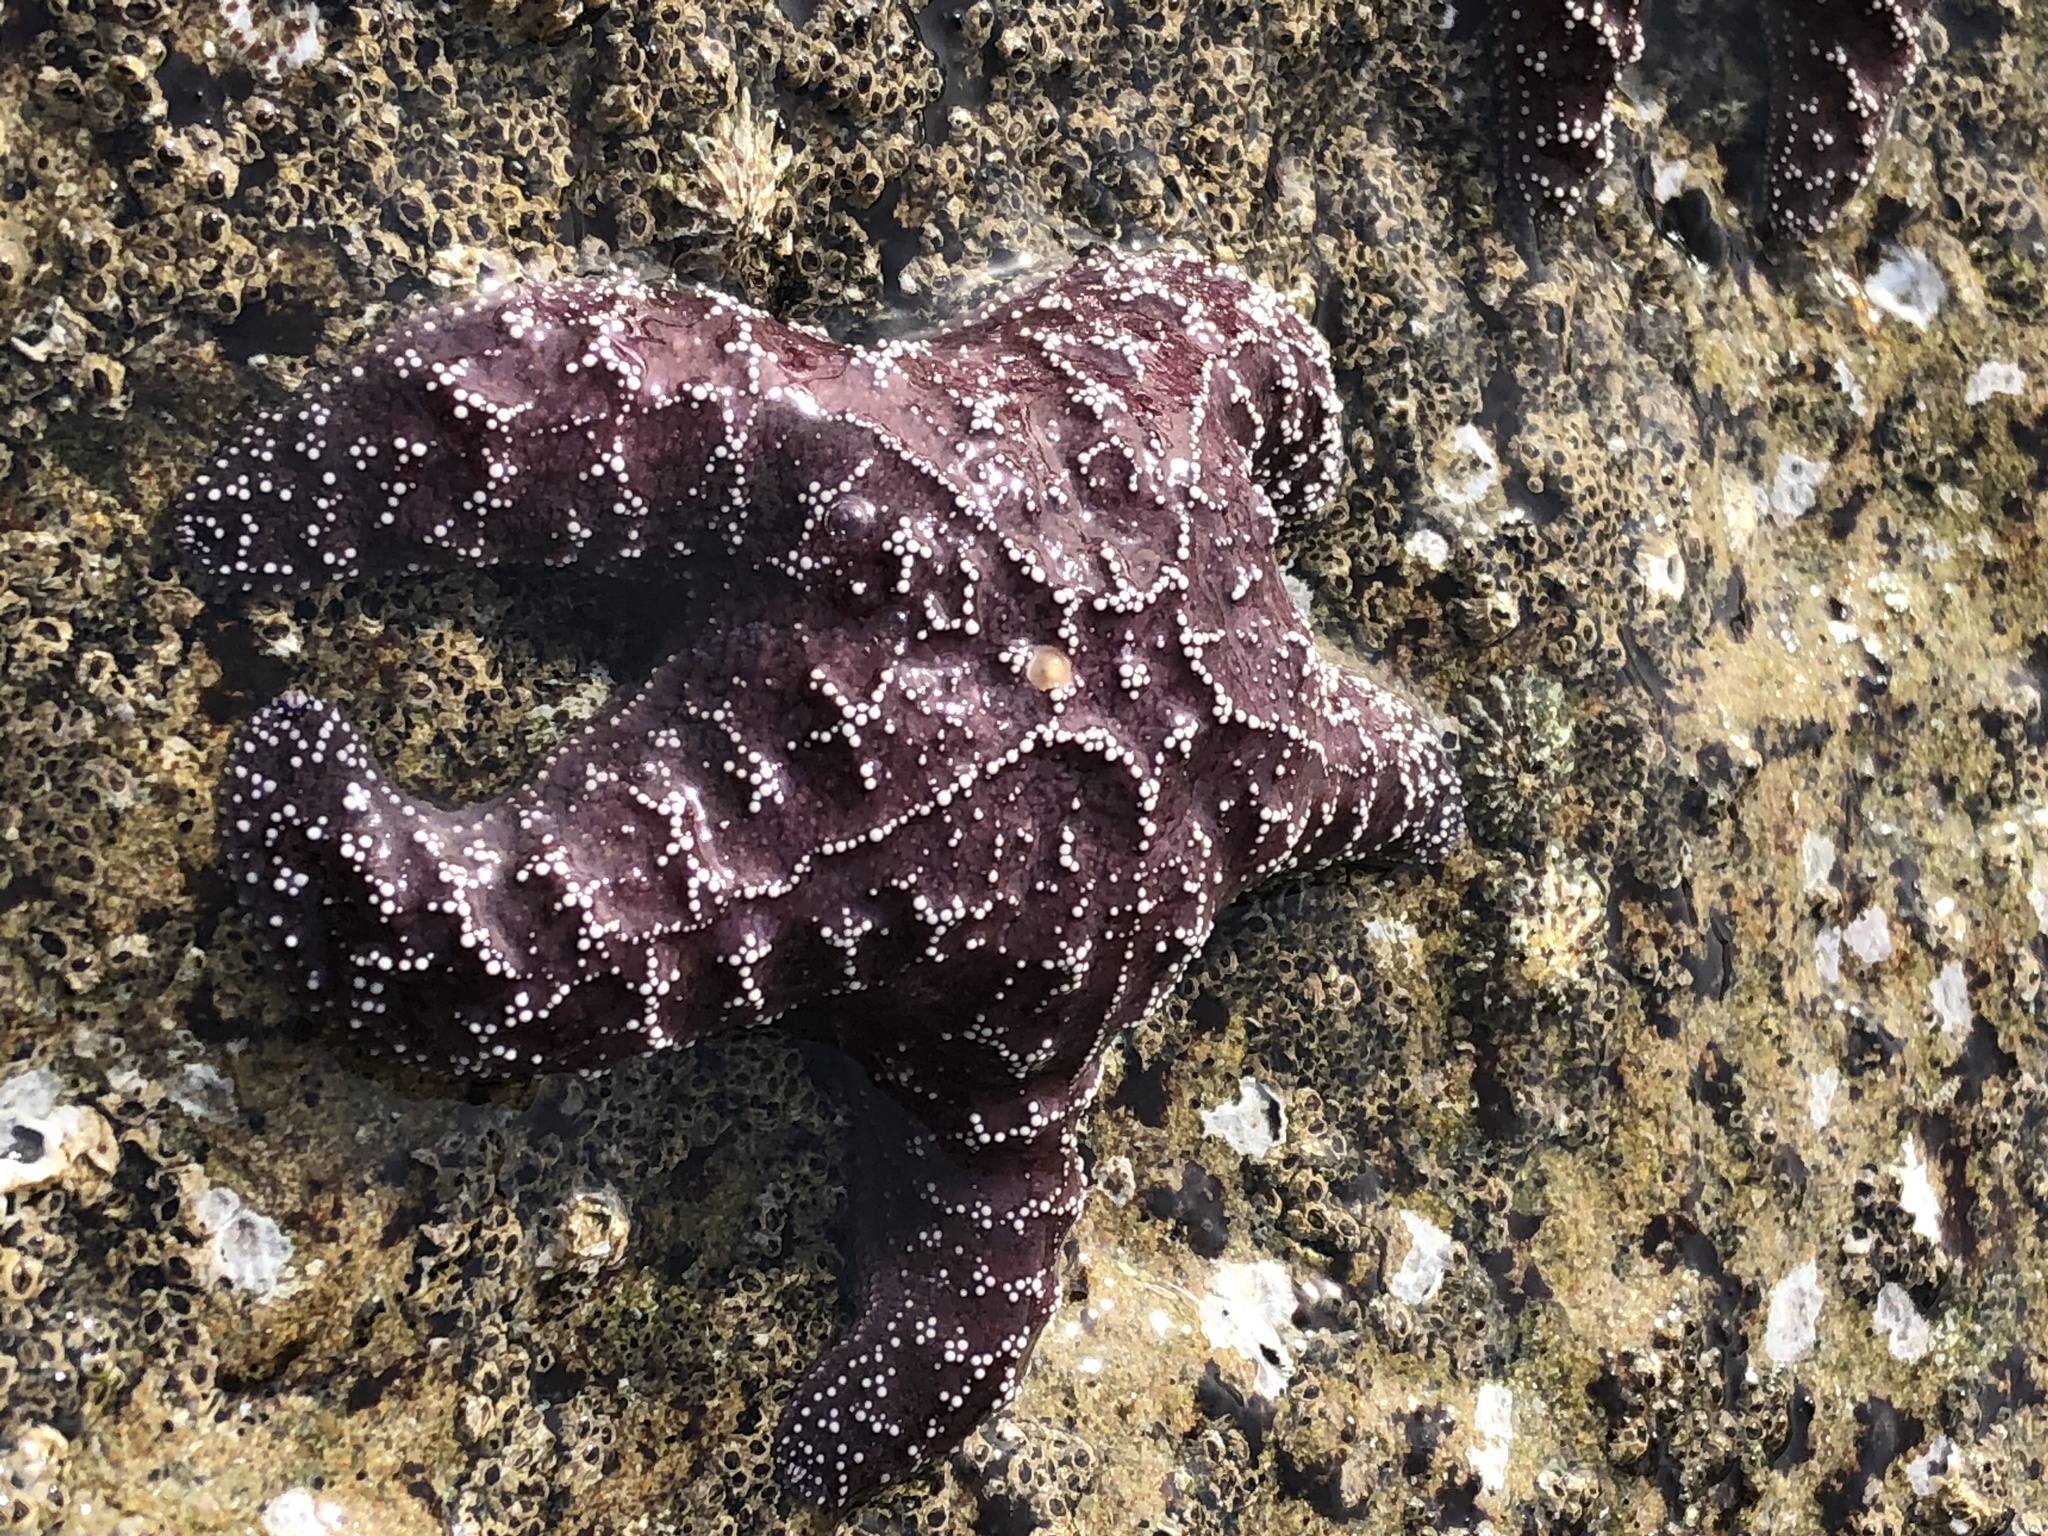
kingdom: Animalia
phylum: Echinodermata
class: Asteroidea
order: Forcipulatida
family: Asteriidae
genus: Pisaster
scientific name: Pisaster ochraceus
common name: Ochre stars
